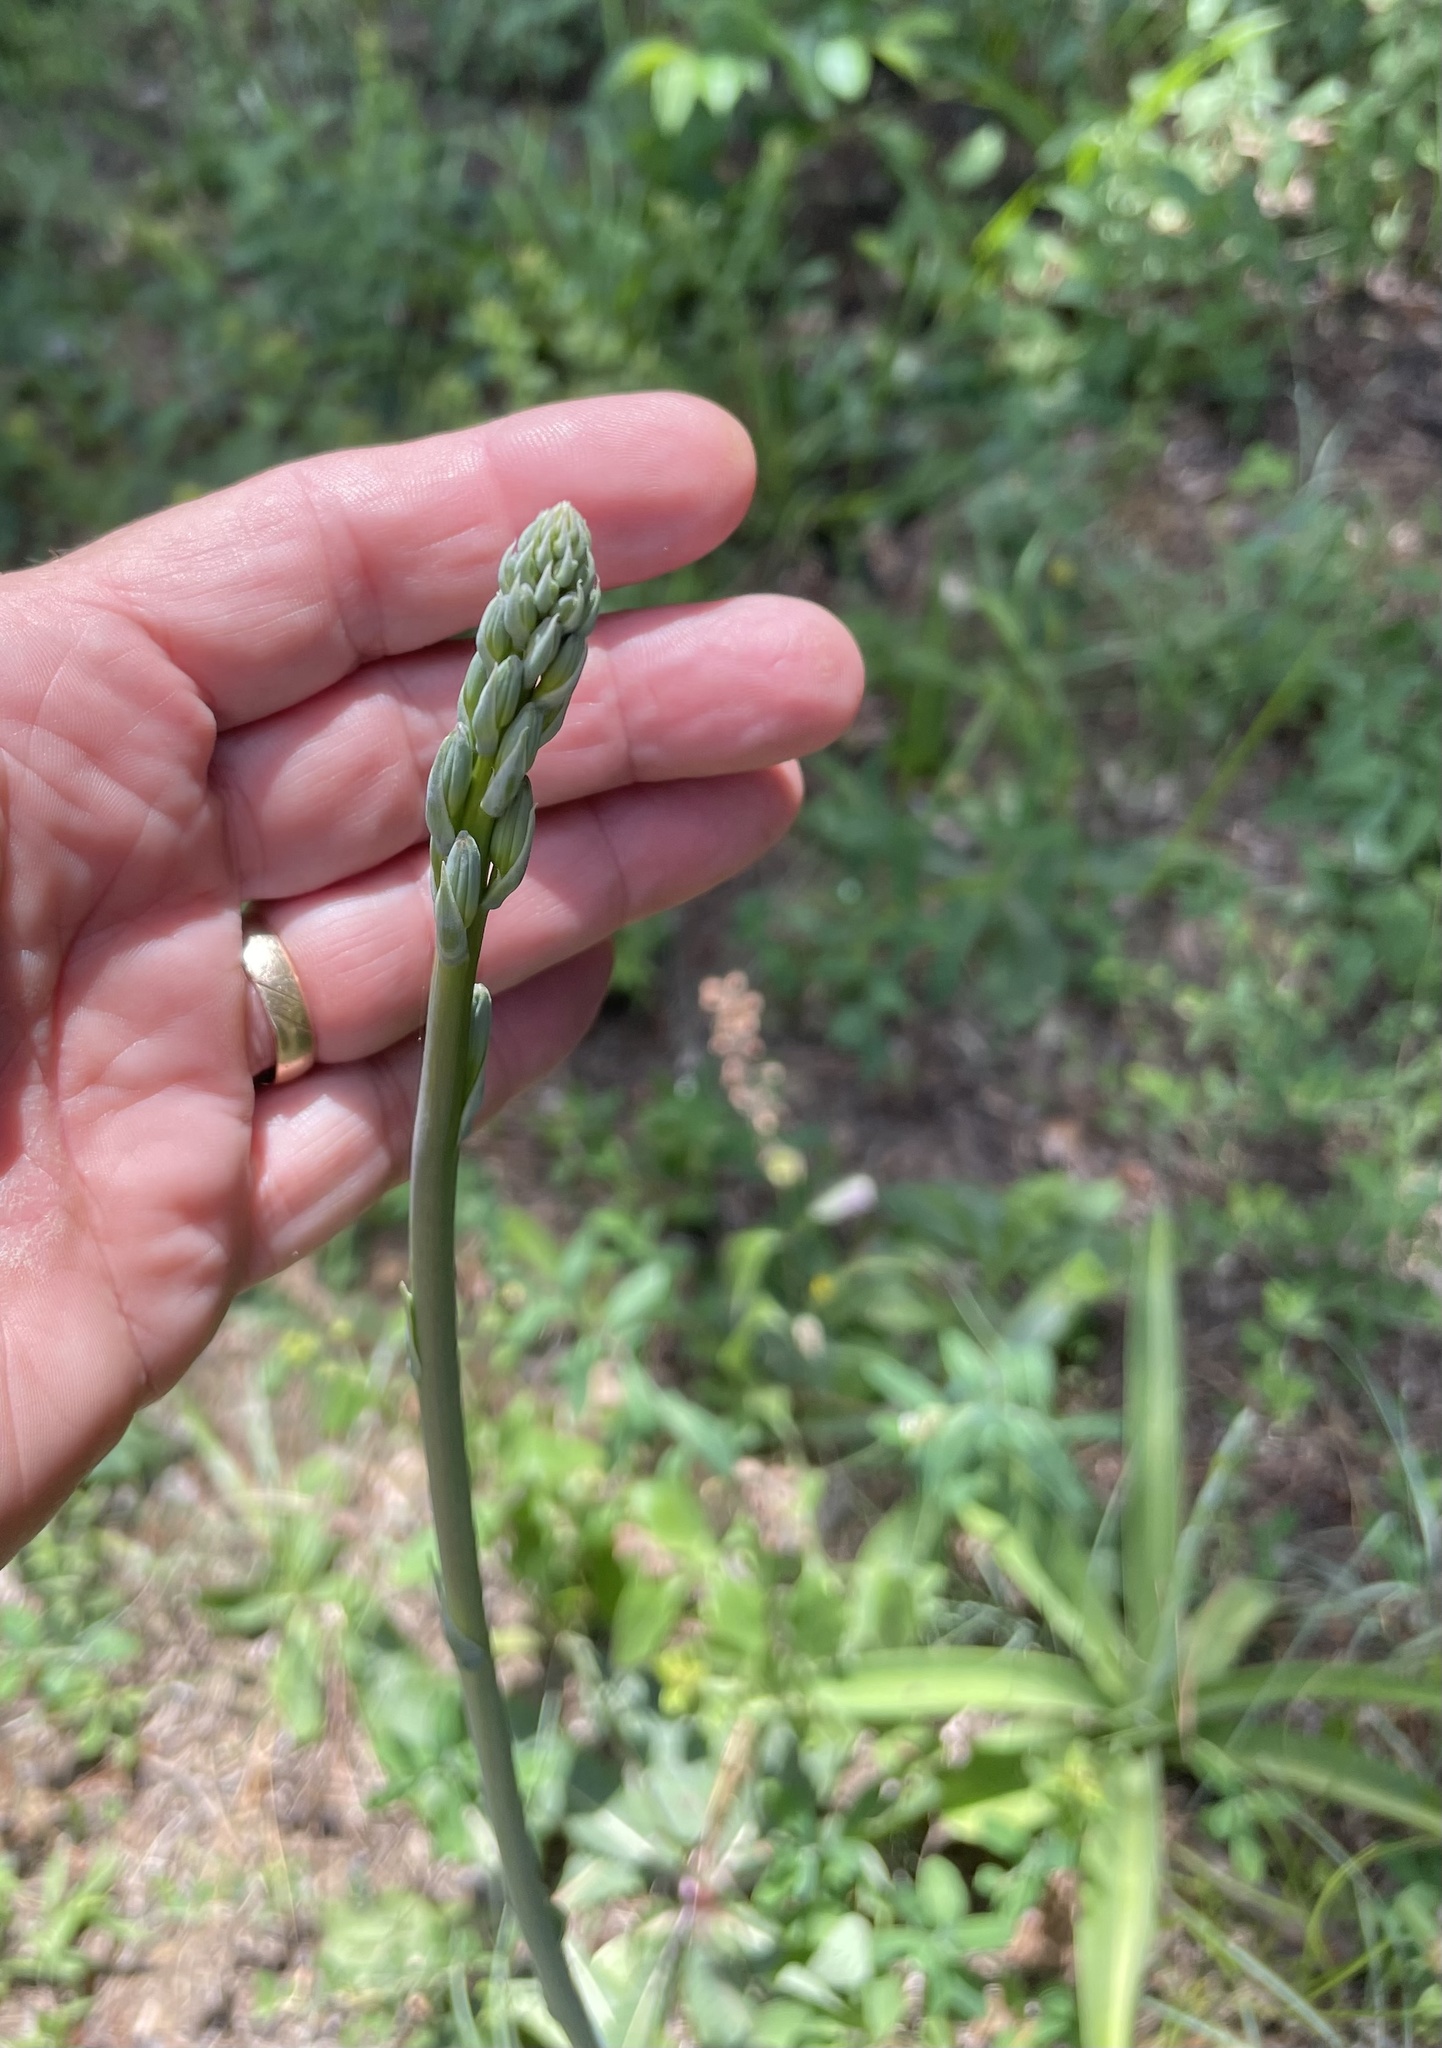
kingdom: Plantae
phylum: Tracheophyta
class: Liliopsida
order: Asparagales
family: Asparagaceae
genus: Agave
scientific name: Agave virginica
